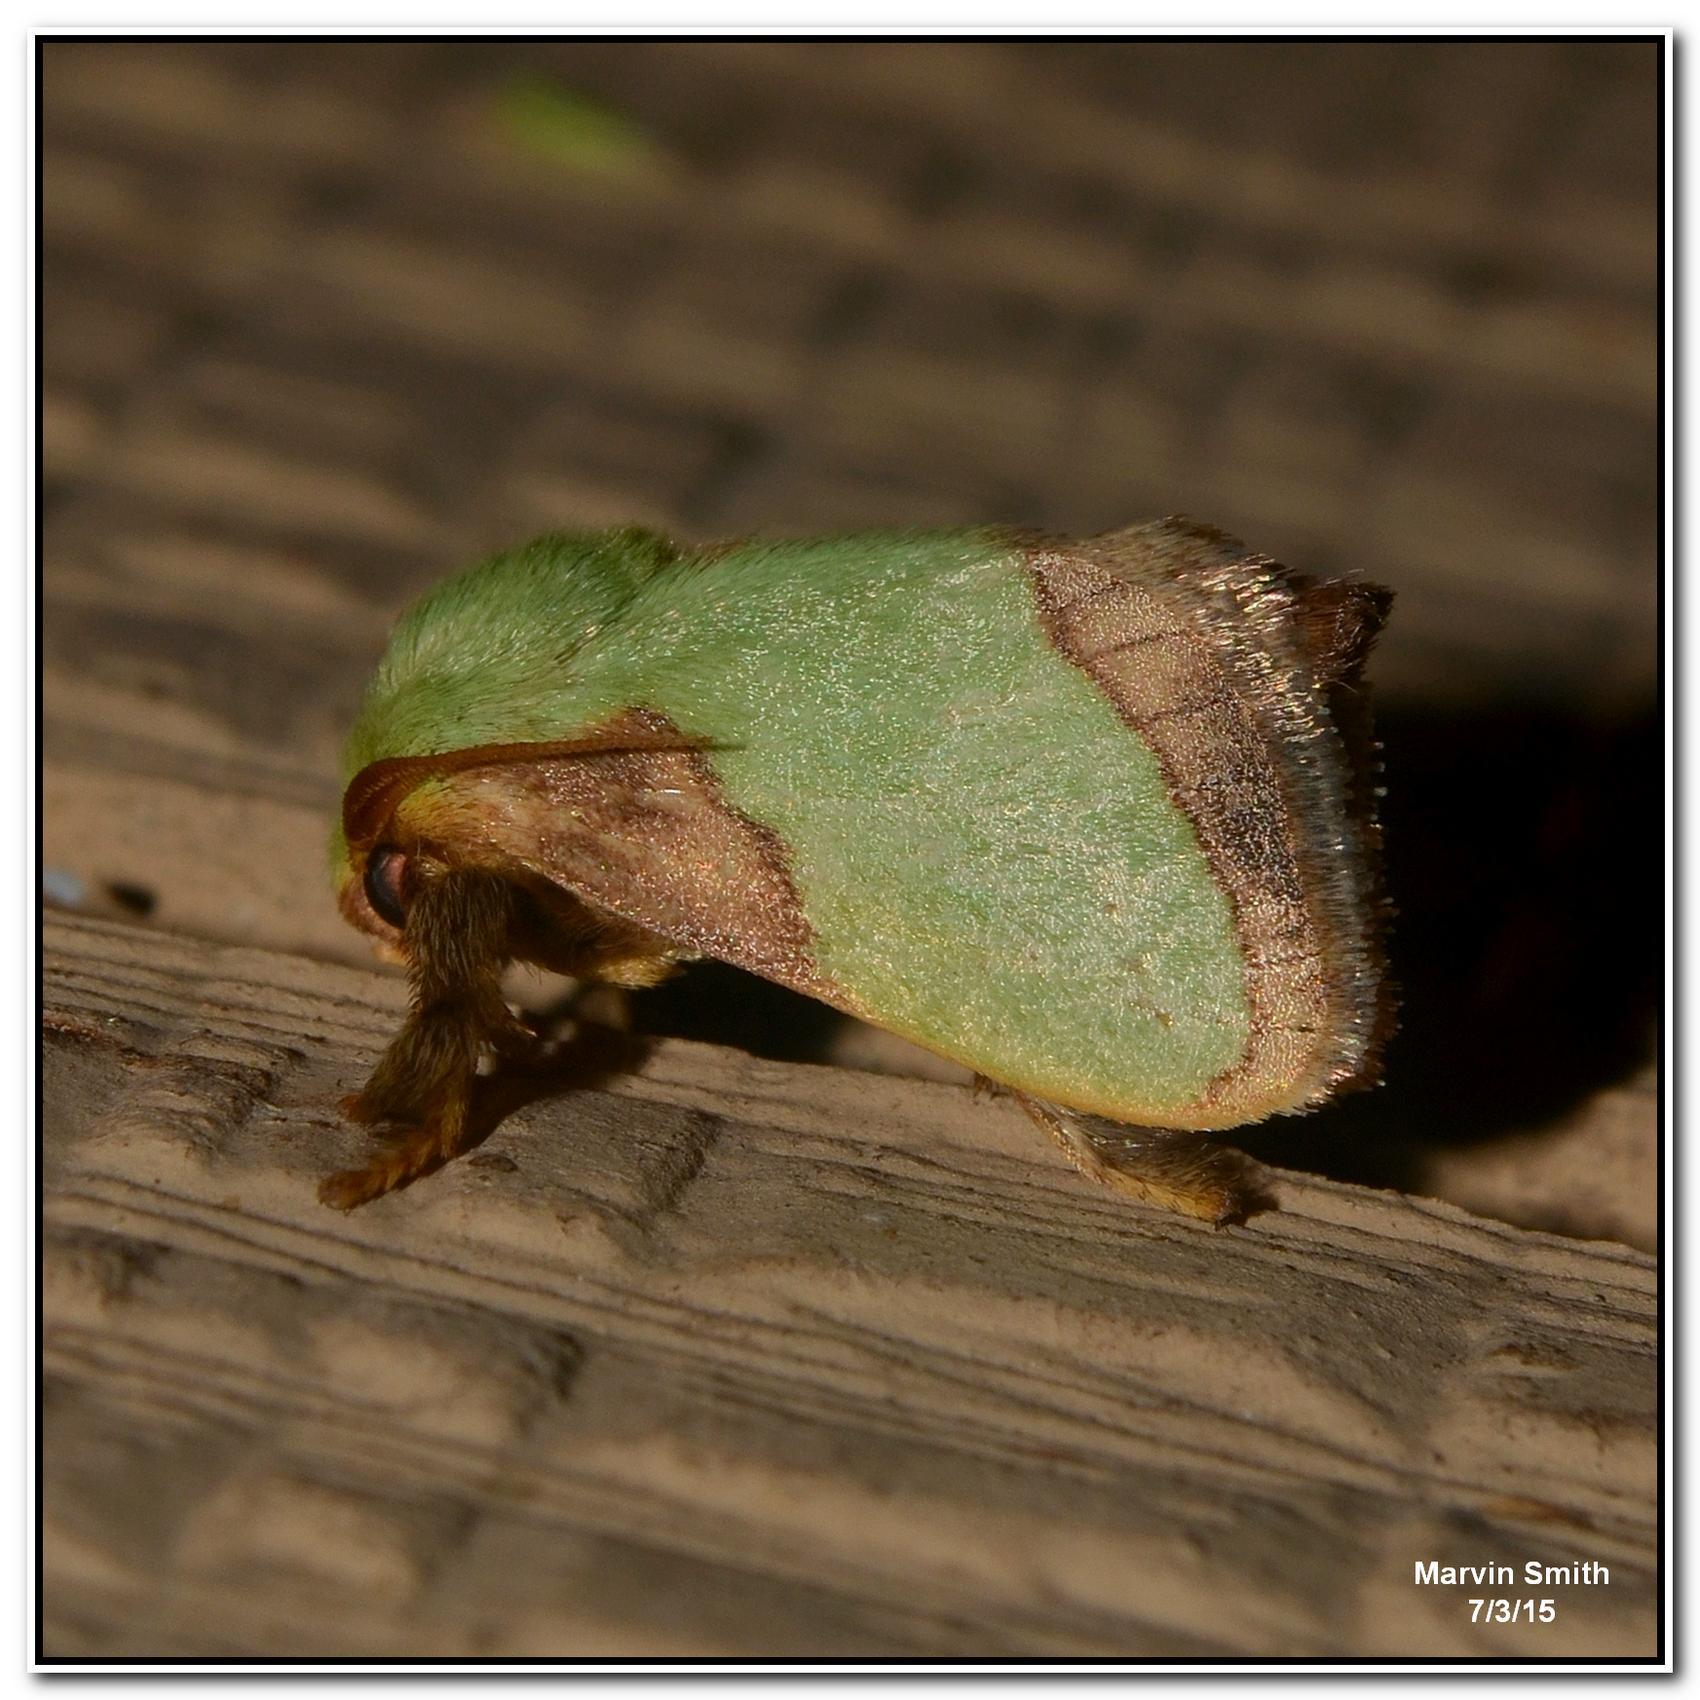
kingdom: Animalia
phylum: Arthropoda
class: Insecta
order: Lepidoptera
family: Limacodidae
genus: Parasa
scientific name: Parasa indetermina
